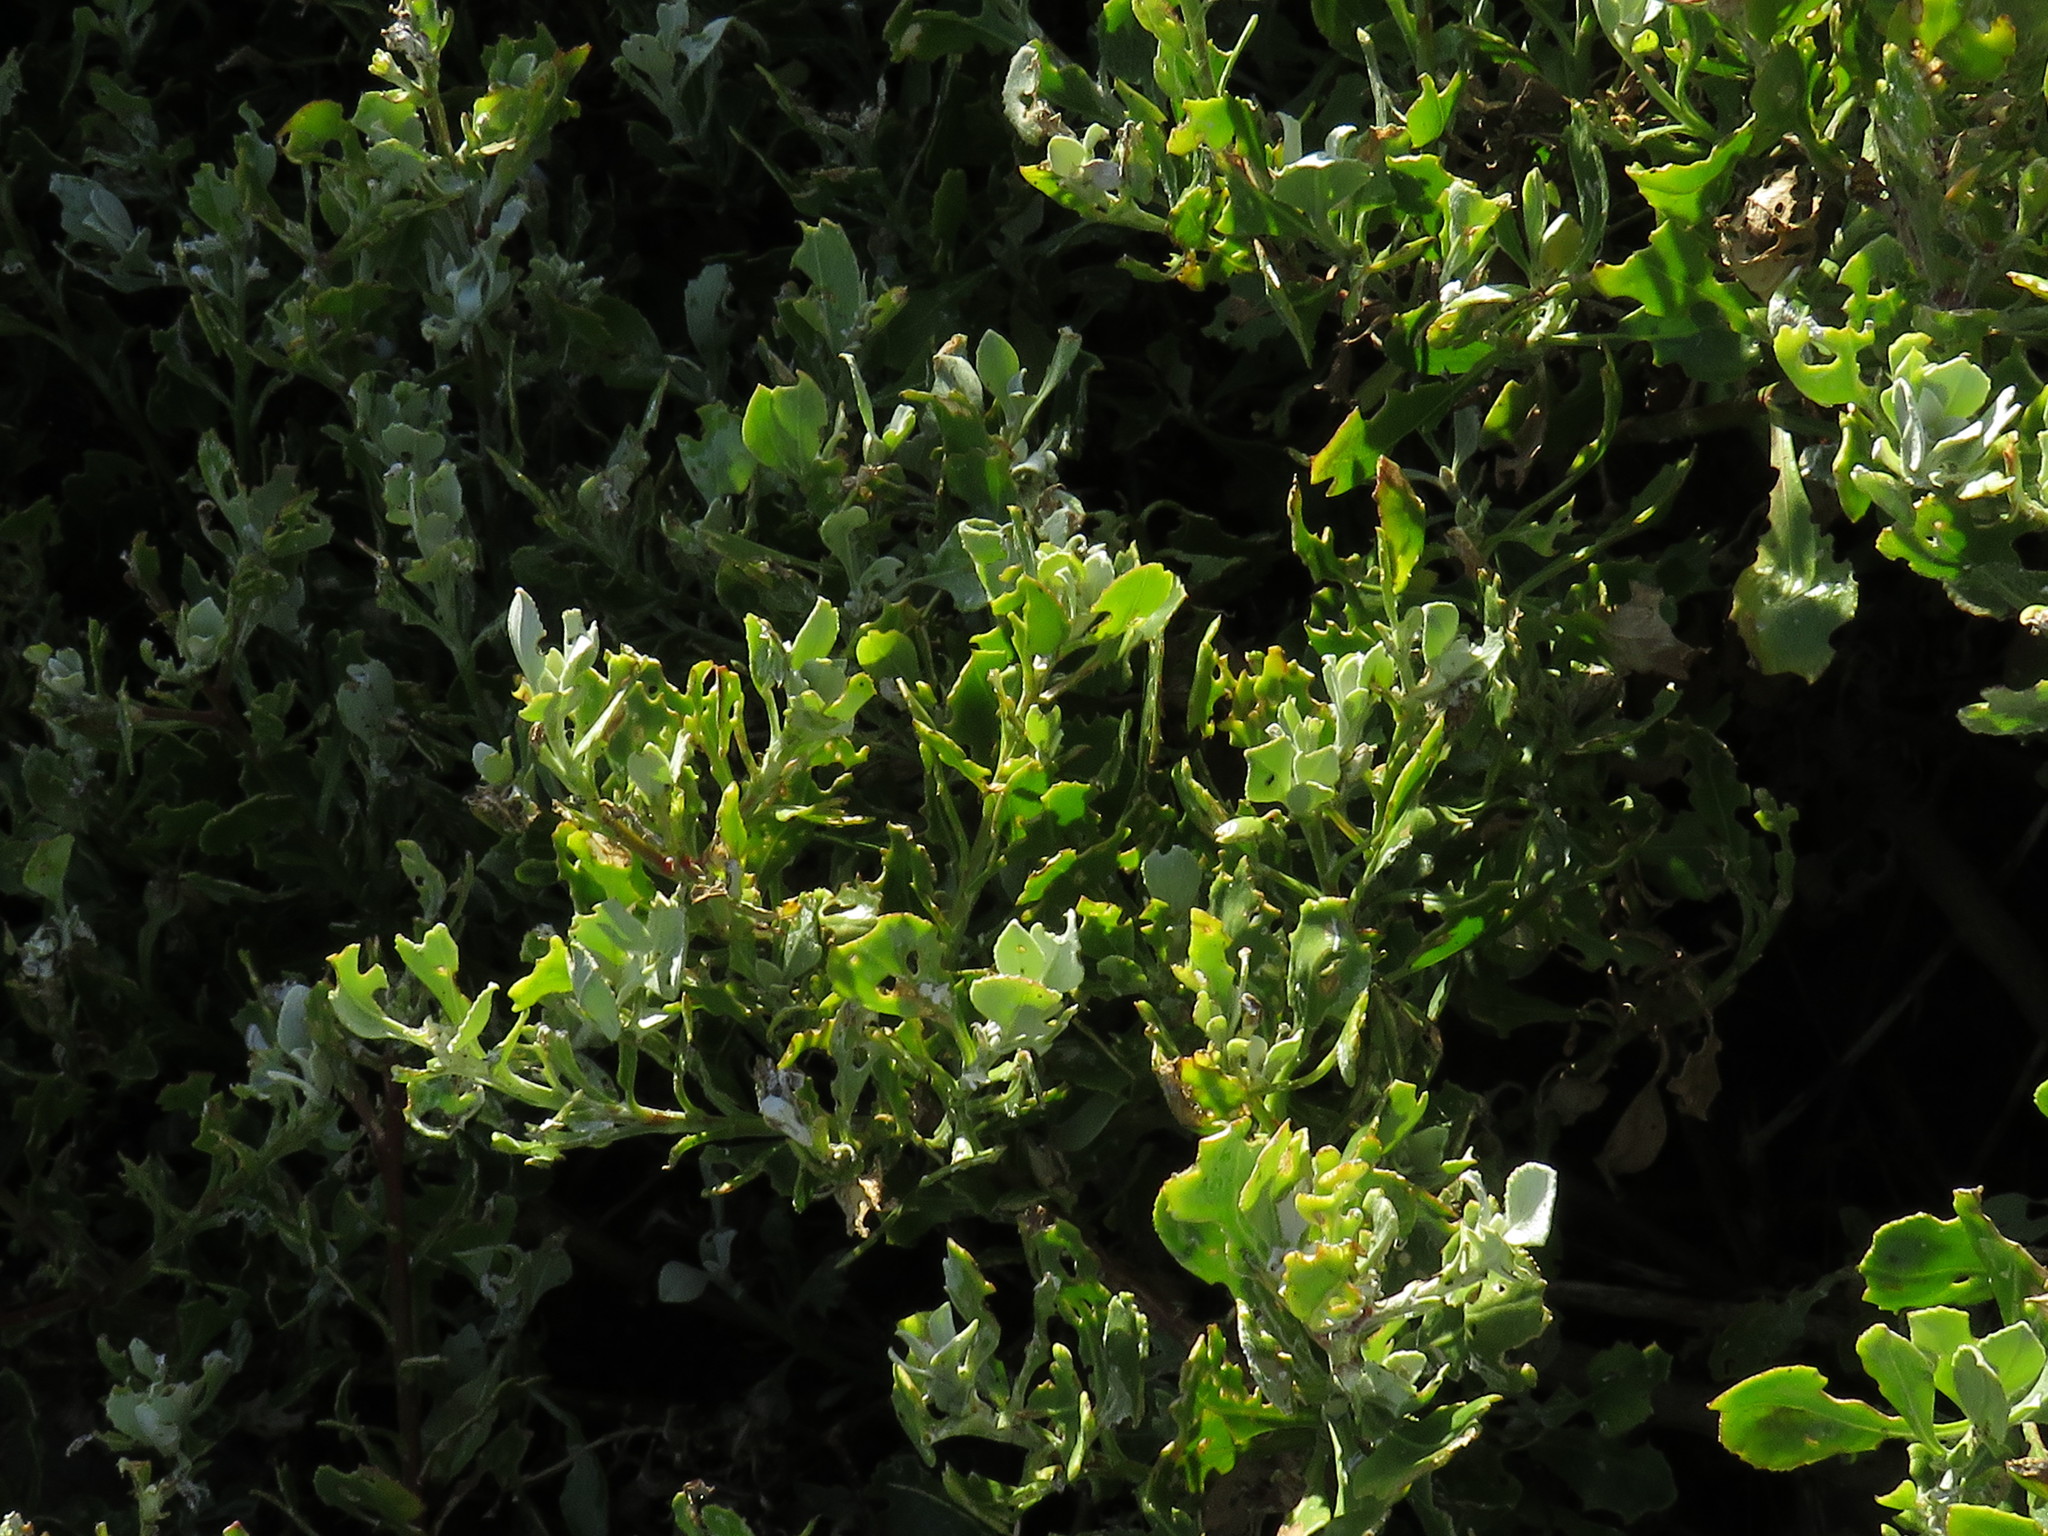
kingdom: Plantae
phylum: Tracheophyta
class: Magnoliopsida
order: Asterales
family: Asteraceae
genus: Osteospermum
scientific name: Osteospermum moniliferum
